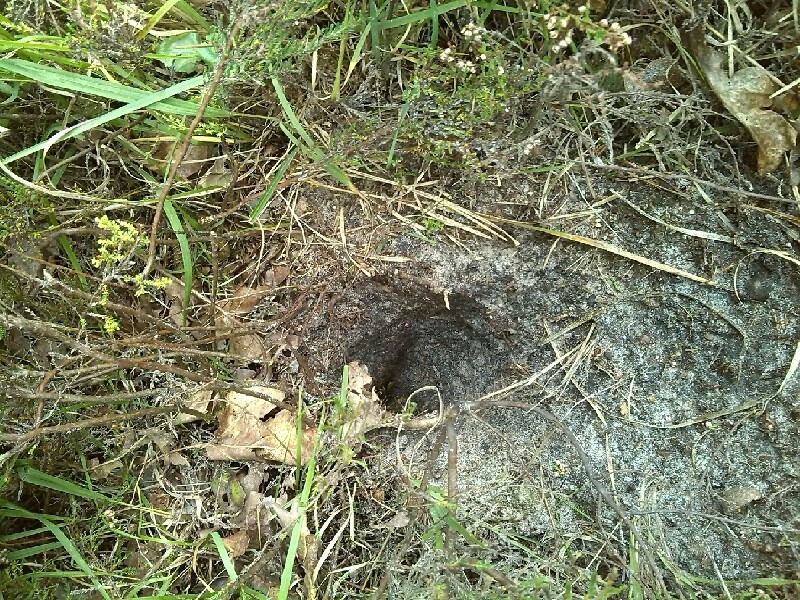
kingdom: Animalia
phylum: Chordata
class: Aves
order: Accipitriformes
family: Accipitridae
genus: Pernis
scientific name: Pernis apivorus
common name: European honey buzzard
